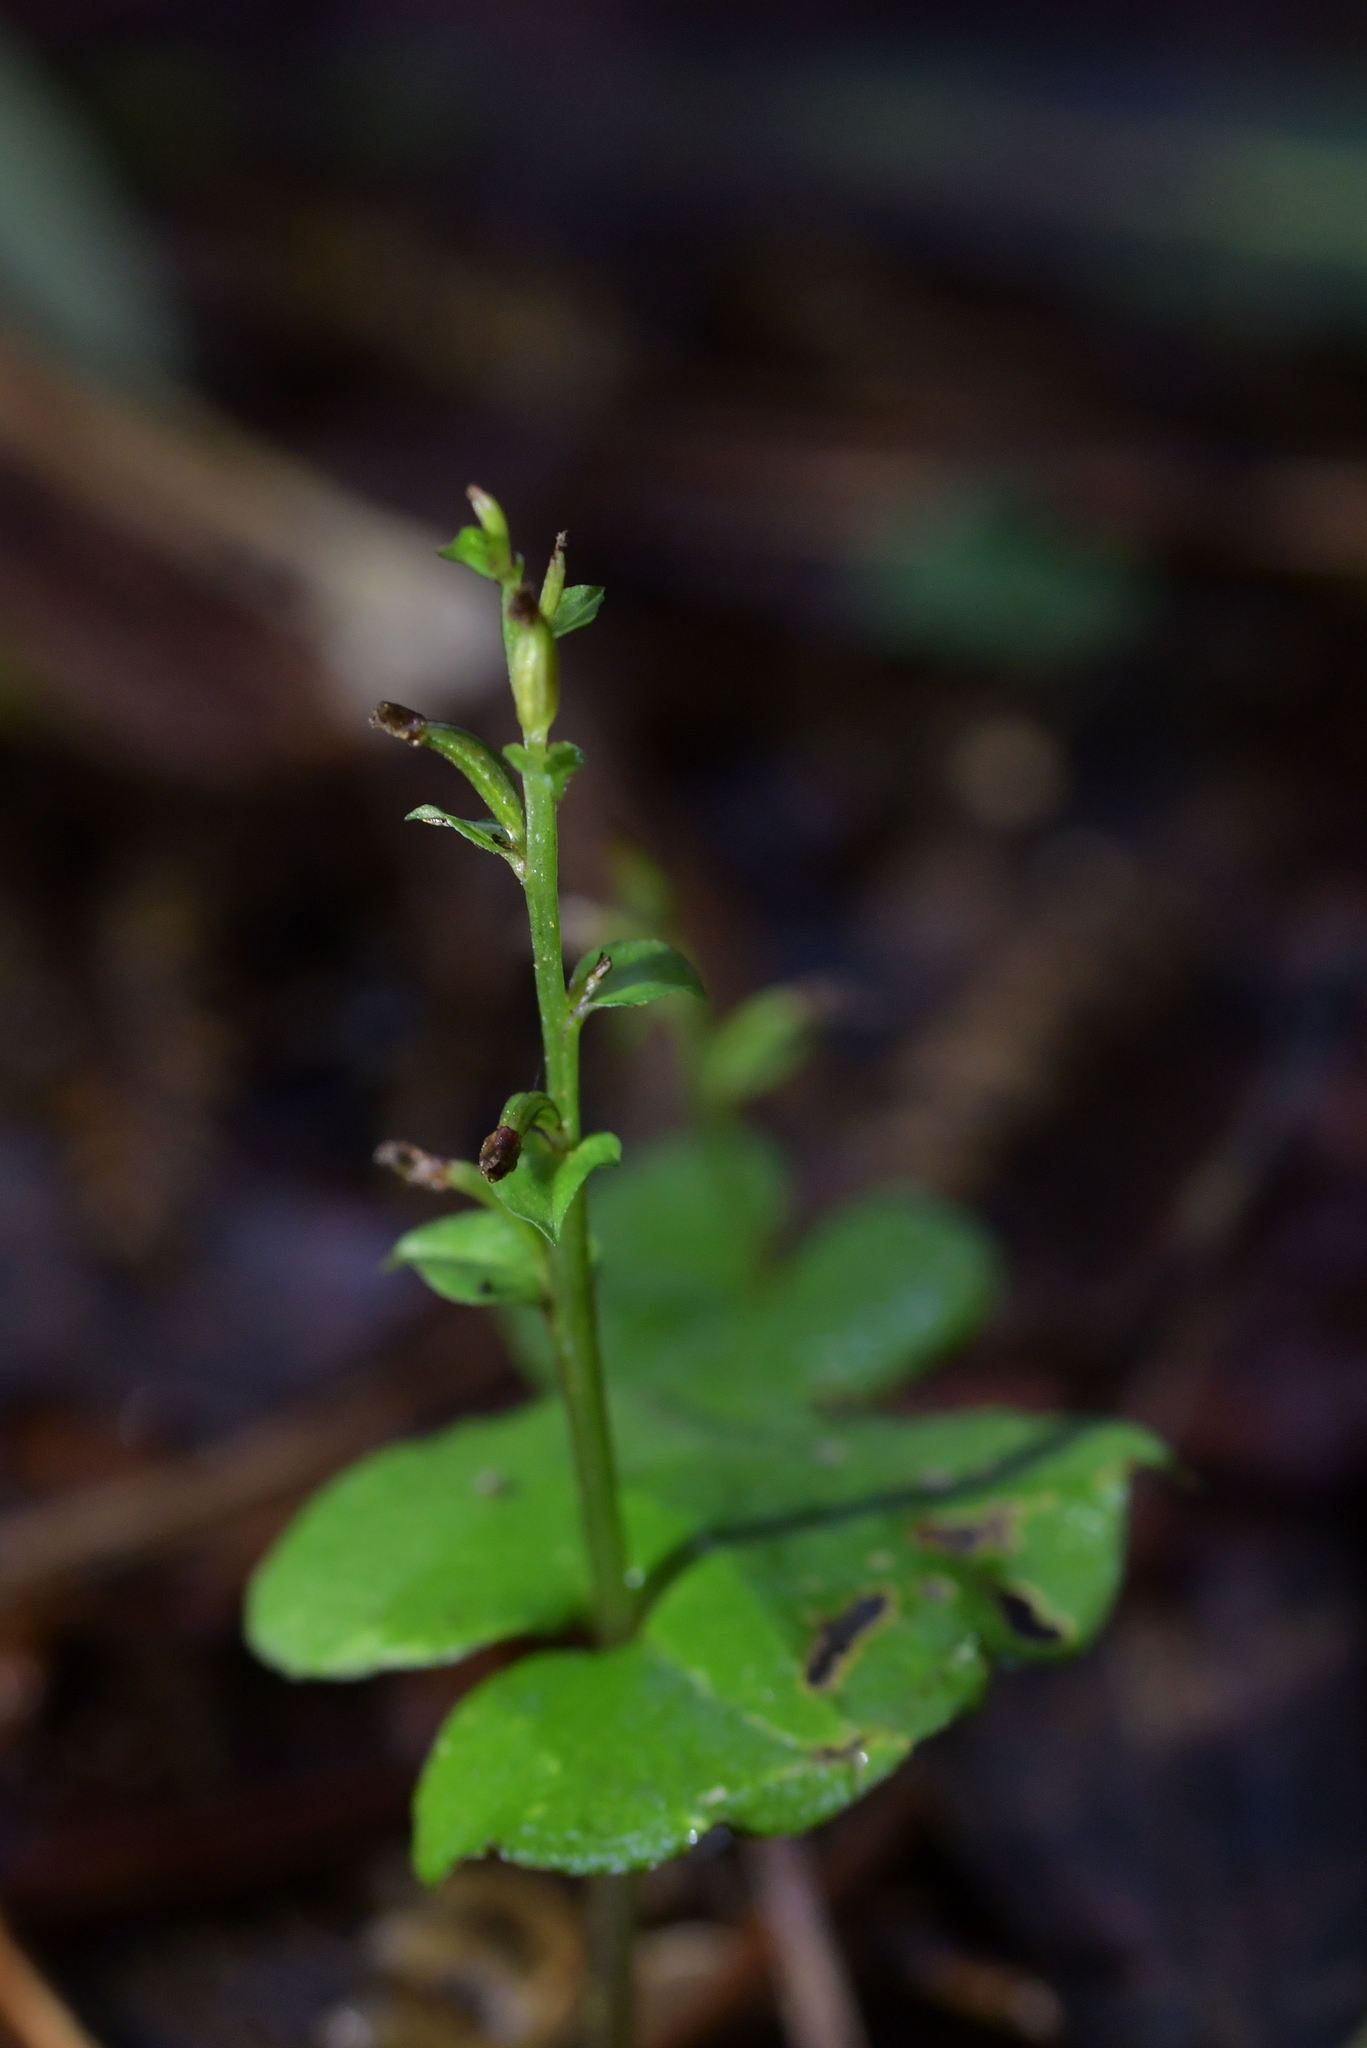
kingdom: Plantae
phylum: Tracheophyta
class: Liliopsida
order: Asparagales
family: Orchidaceae
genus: Acianthus
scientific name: Acianthus sinclairii
